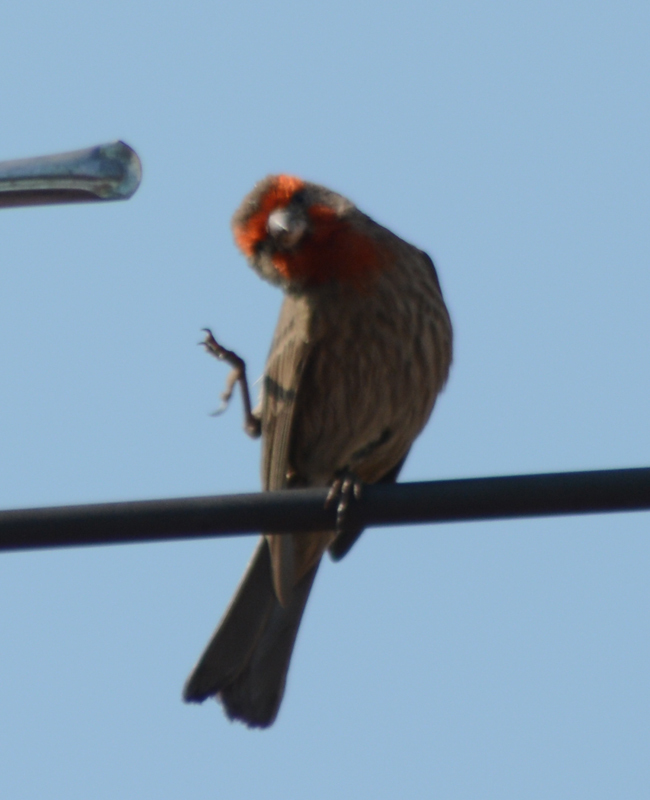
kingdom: Animalia
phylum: Chordata
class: Aves
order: Passeriformes
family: Fringillidae
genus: Haemorhous
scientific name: Haemorhous mexicanus
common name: House finch
